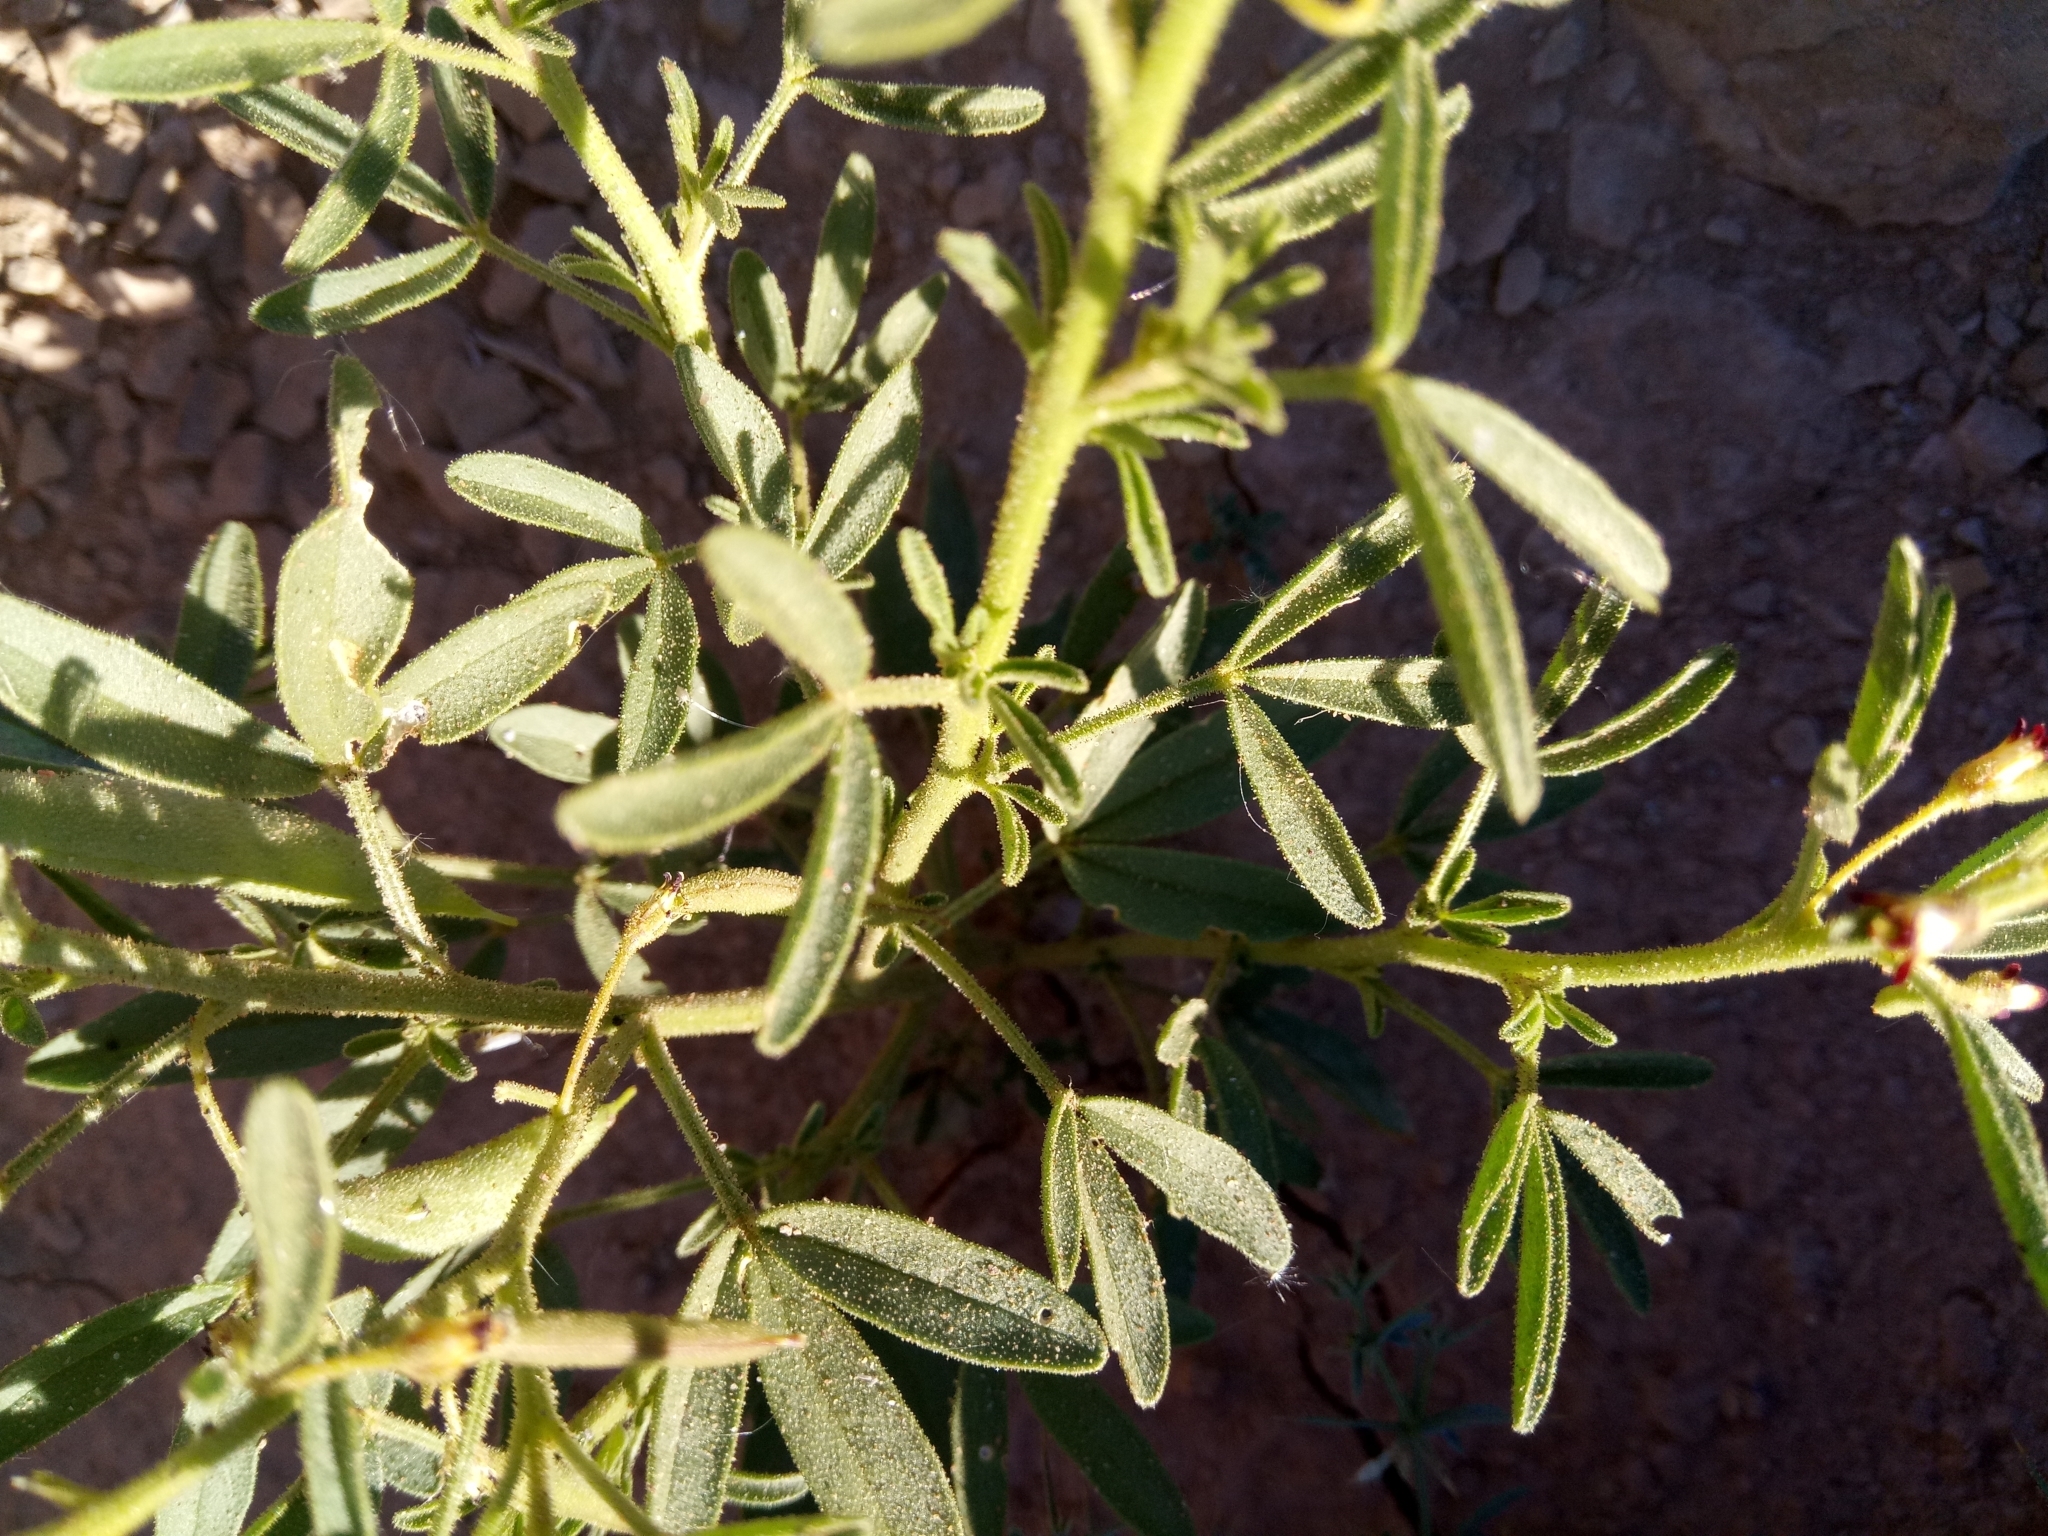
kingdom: Plantae
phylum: Tracheophyta
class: Magnoliopsida
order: Brassicales
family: Cleomaceae
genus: Cleome
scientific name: Cleome amblyocarpa
